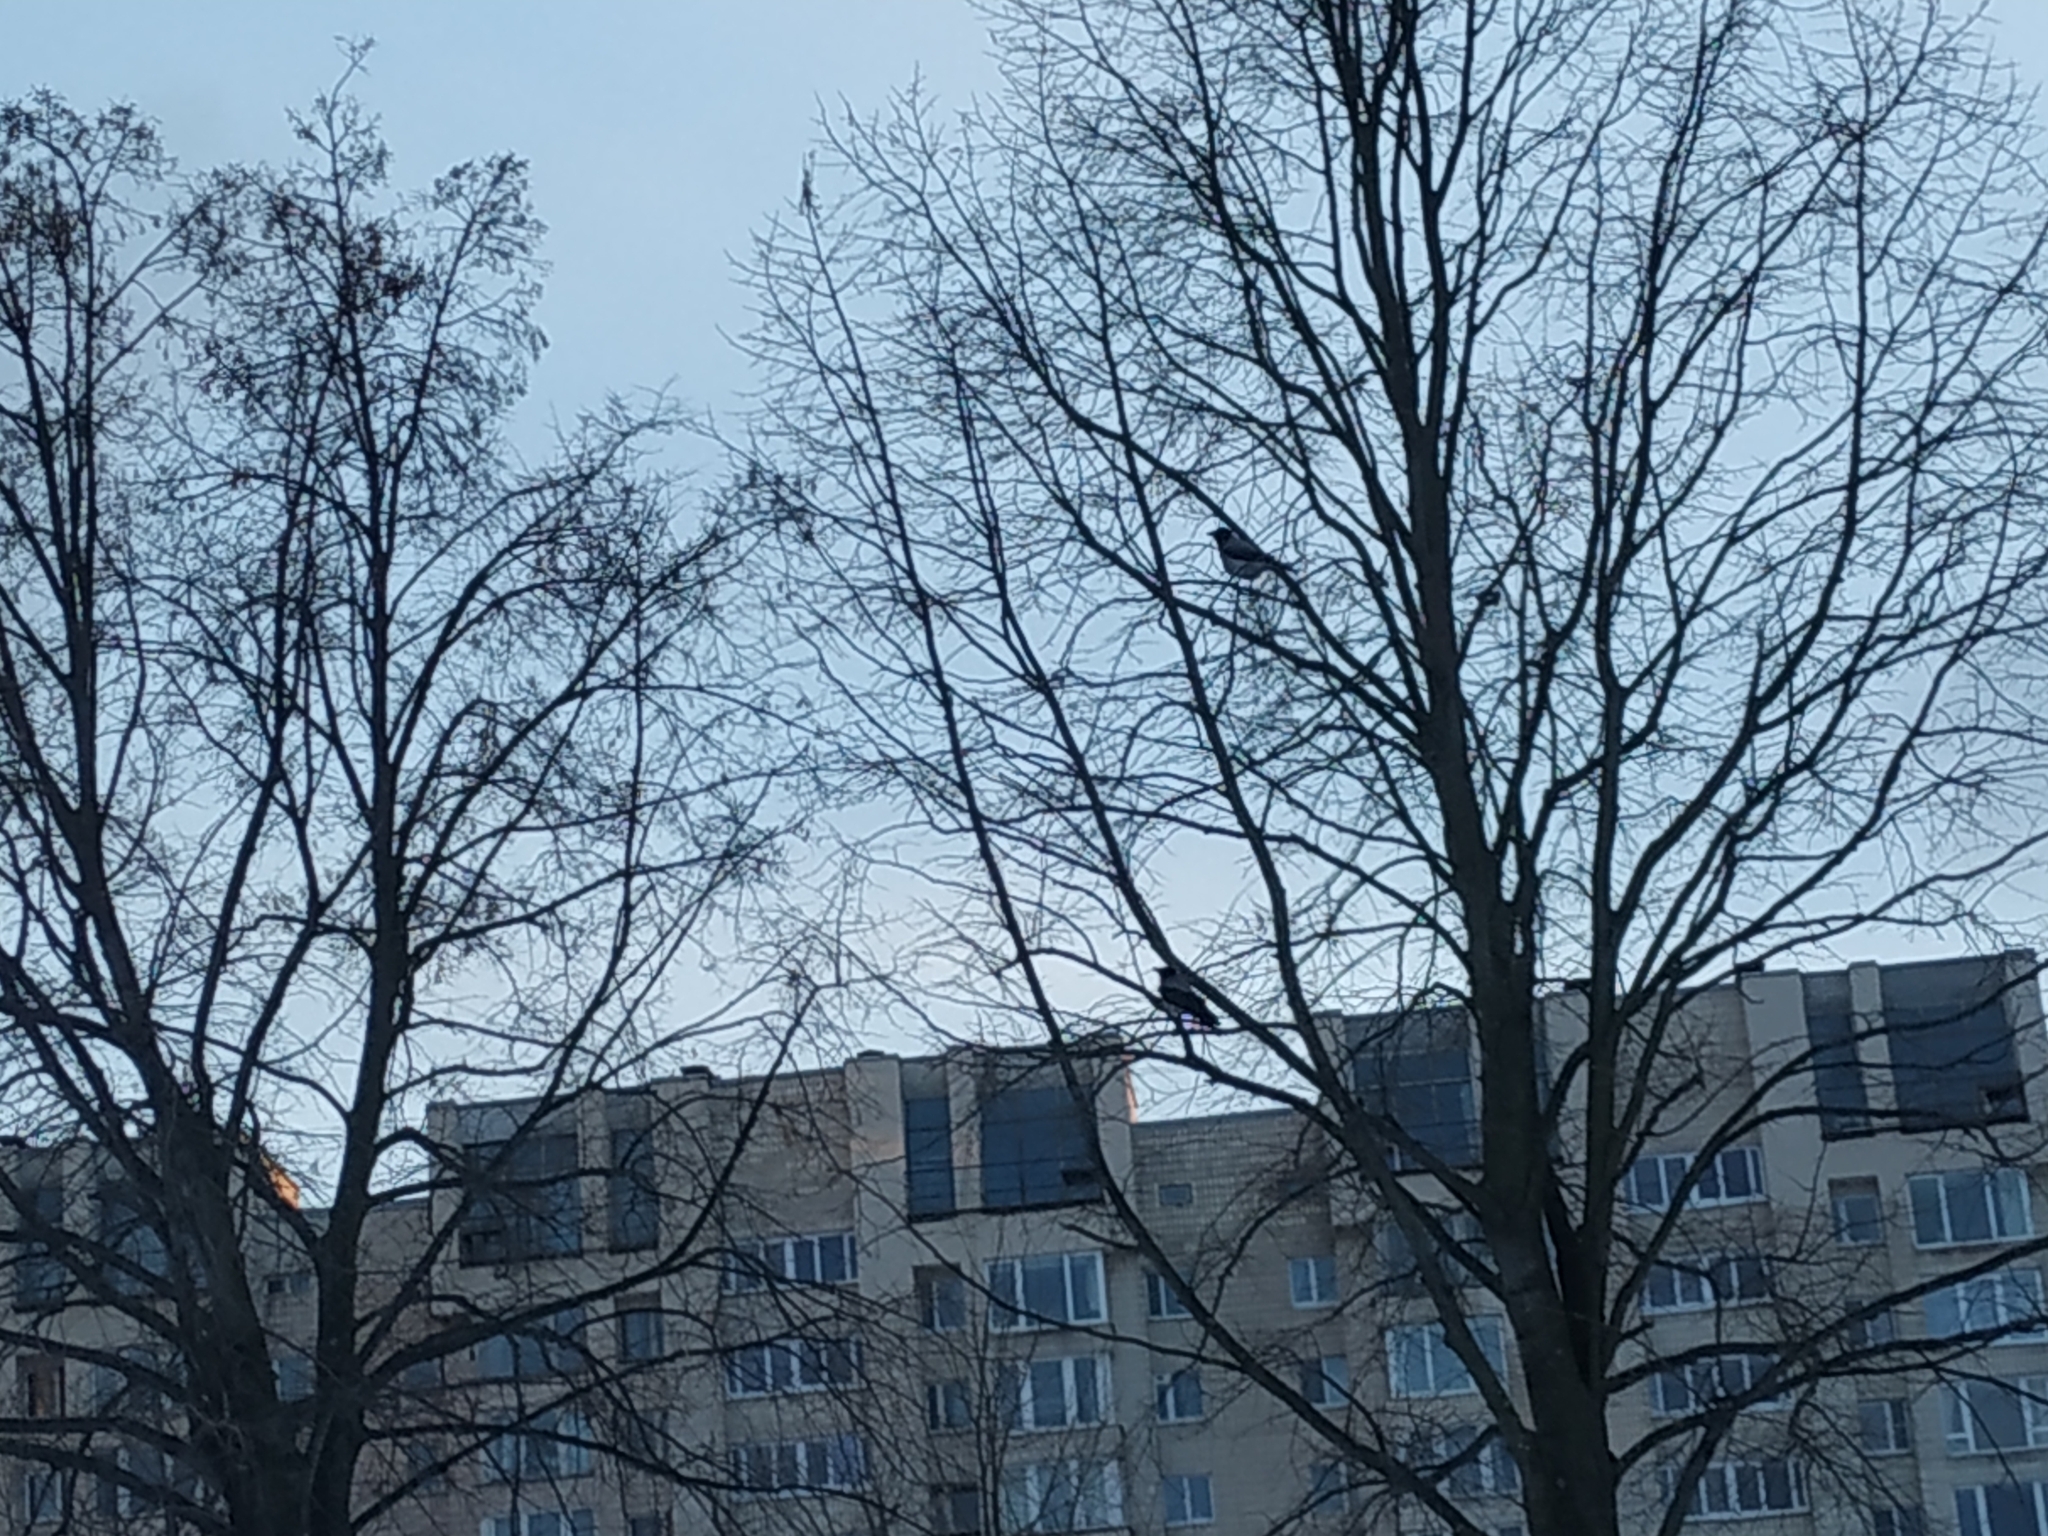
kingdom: Animalia
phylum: Chordata
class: Aves
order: Passeriformes
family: Corvidae
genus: Corvus
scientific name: Corvus cornix
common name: Hooded crow
